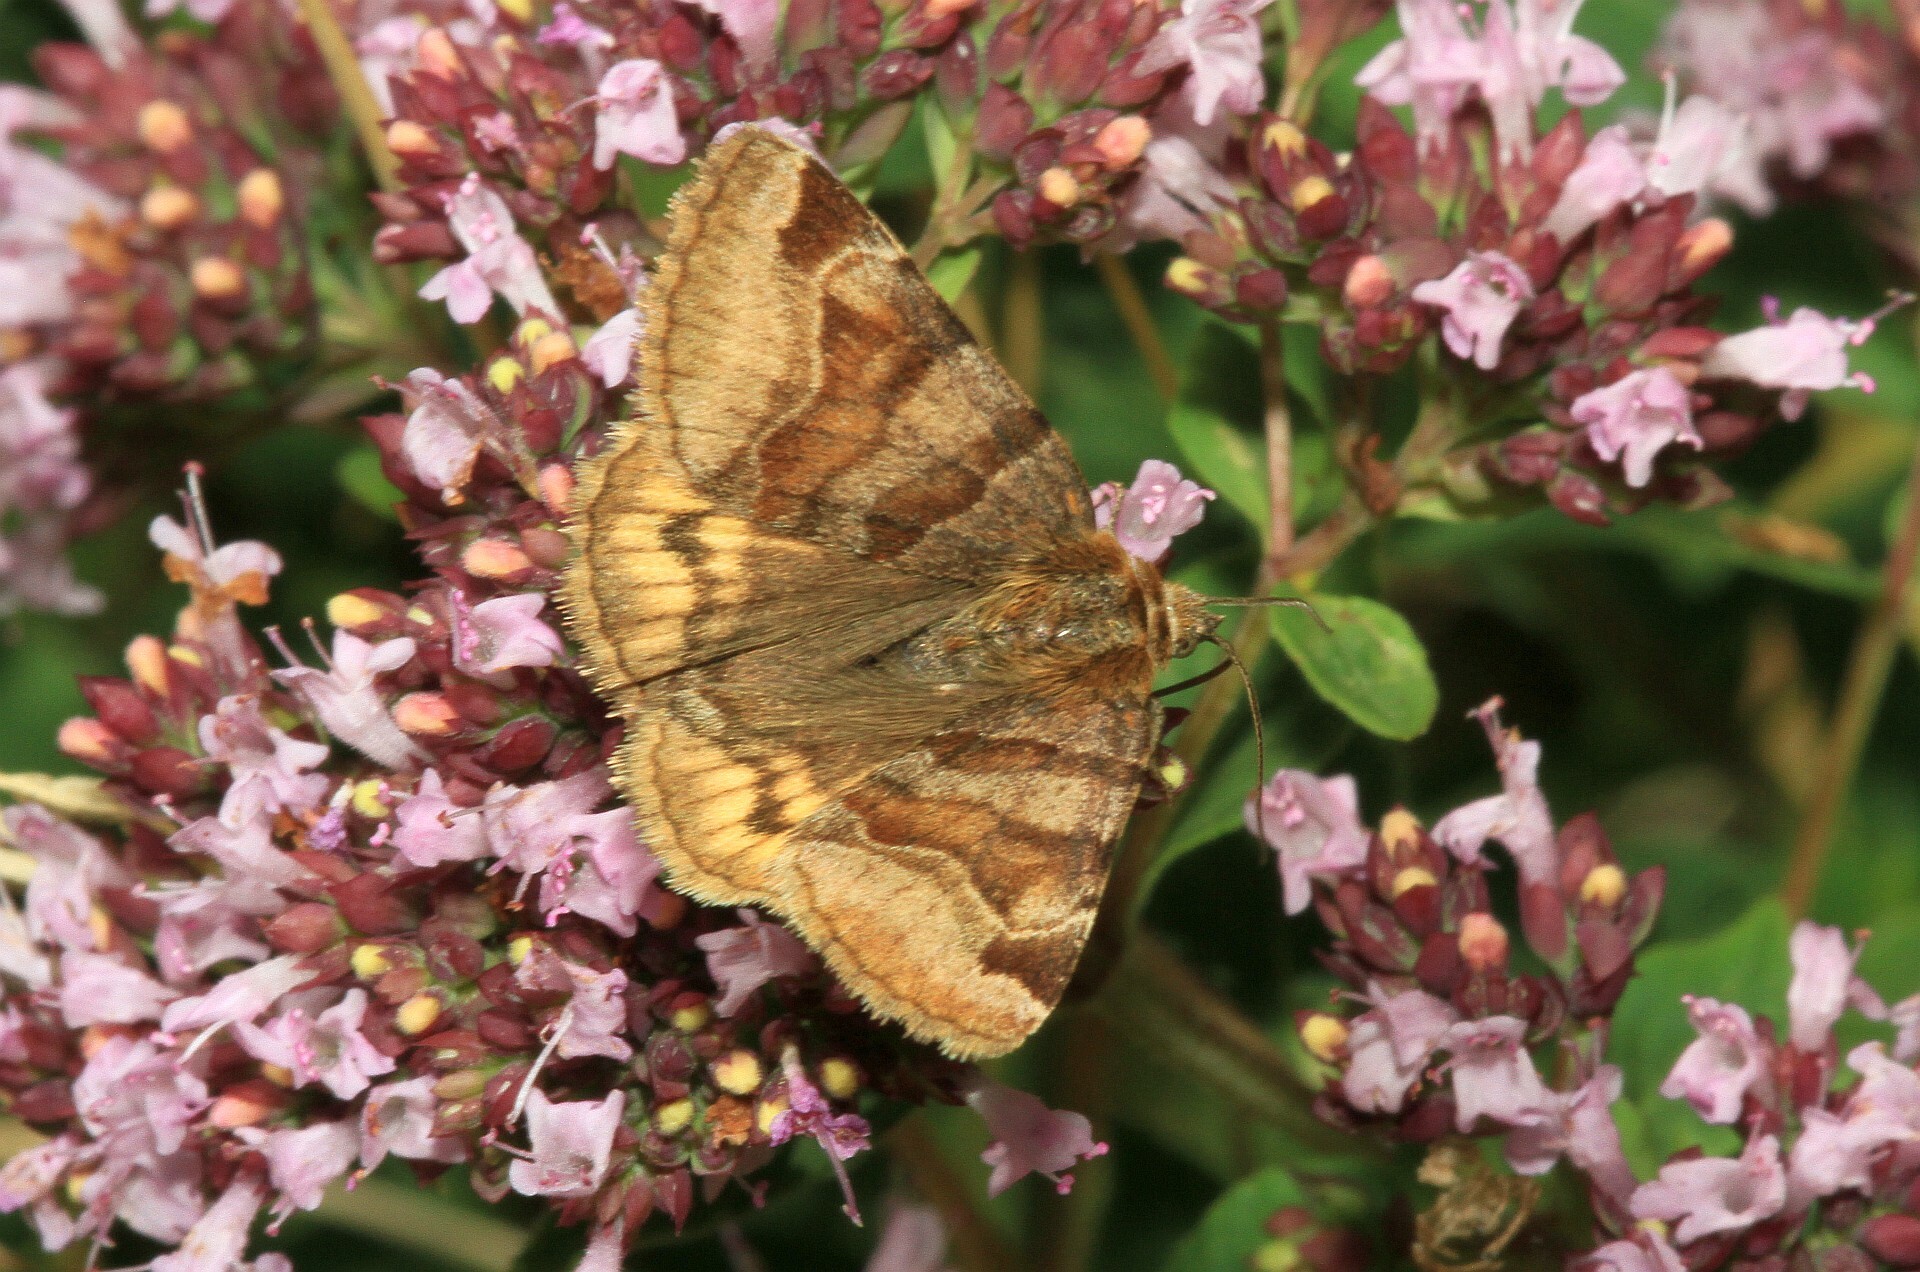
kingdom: Animalia
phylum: Arthropoda
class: Insecta
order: Lepidoptera
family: Erebidae
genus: Euclidia
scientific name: Euclidia glyphica
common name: Burnet companion
